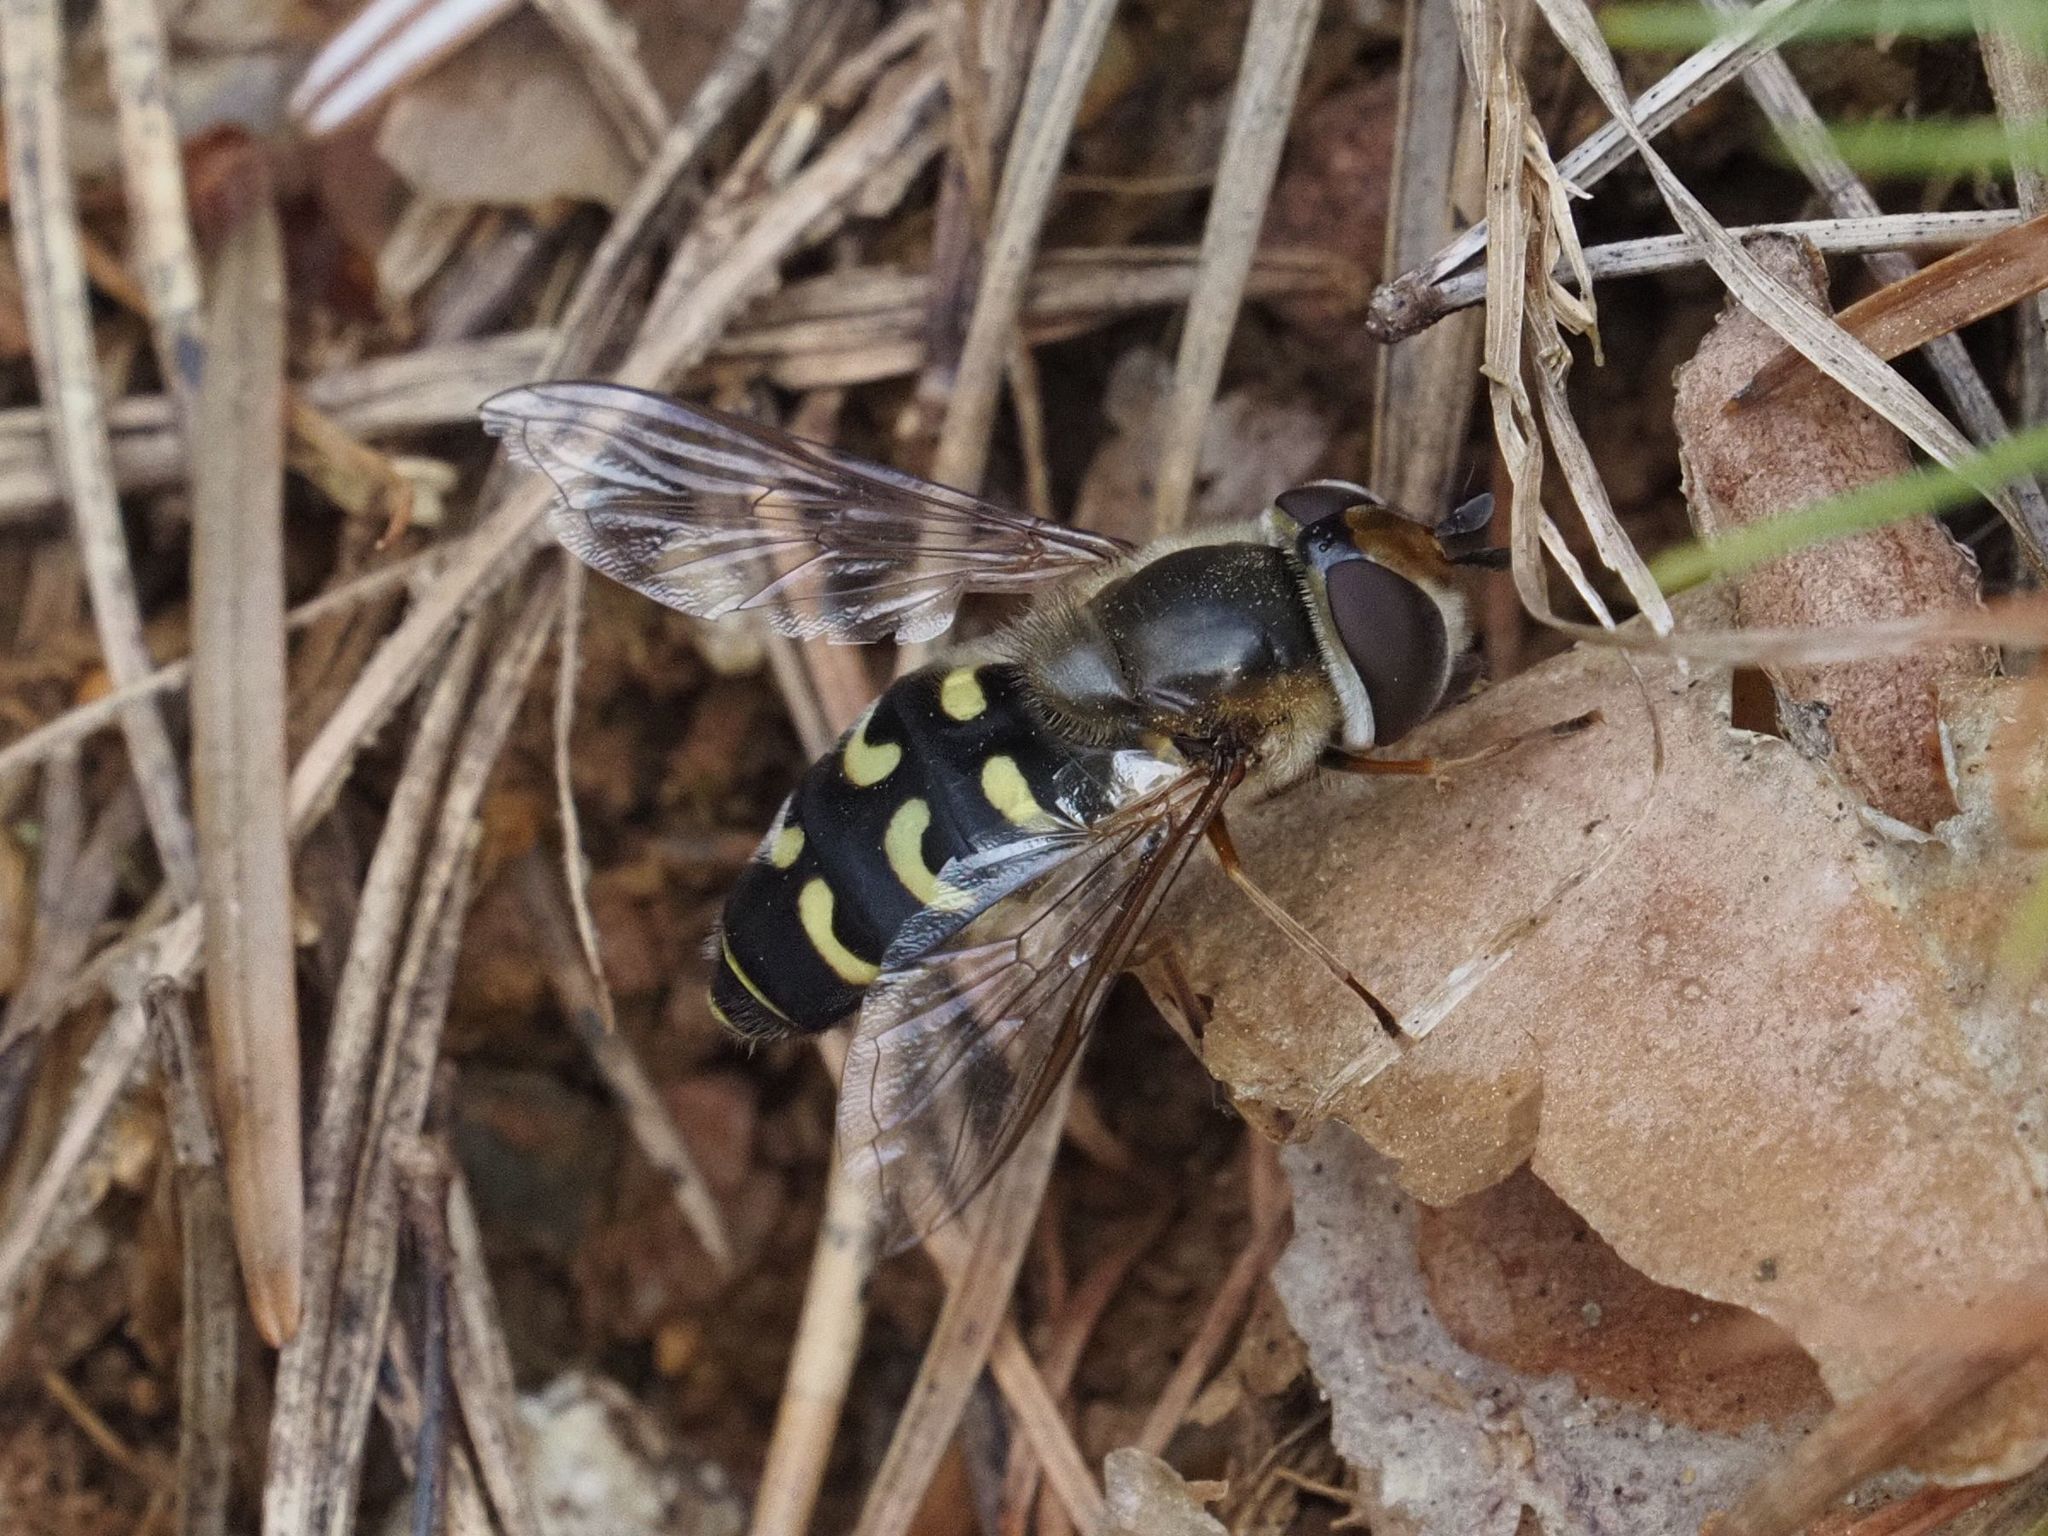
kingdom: Animalia
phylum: Arthropoda
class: Insecta
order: Diptera
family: Syrphidae
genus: Scaeva
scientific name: Scaeva selenitica
